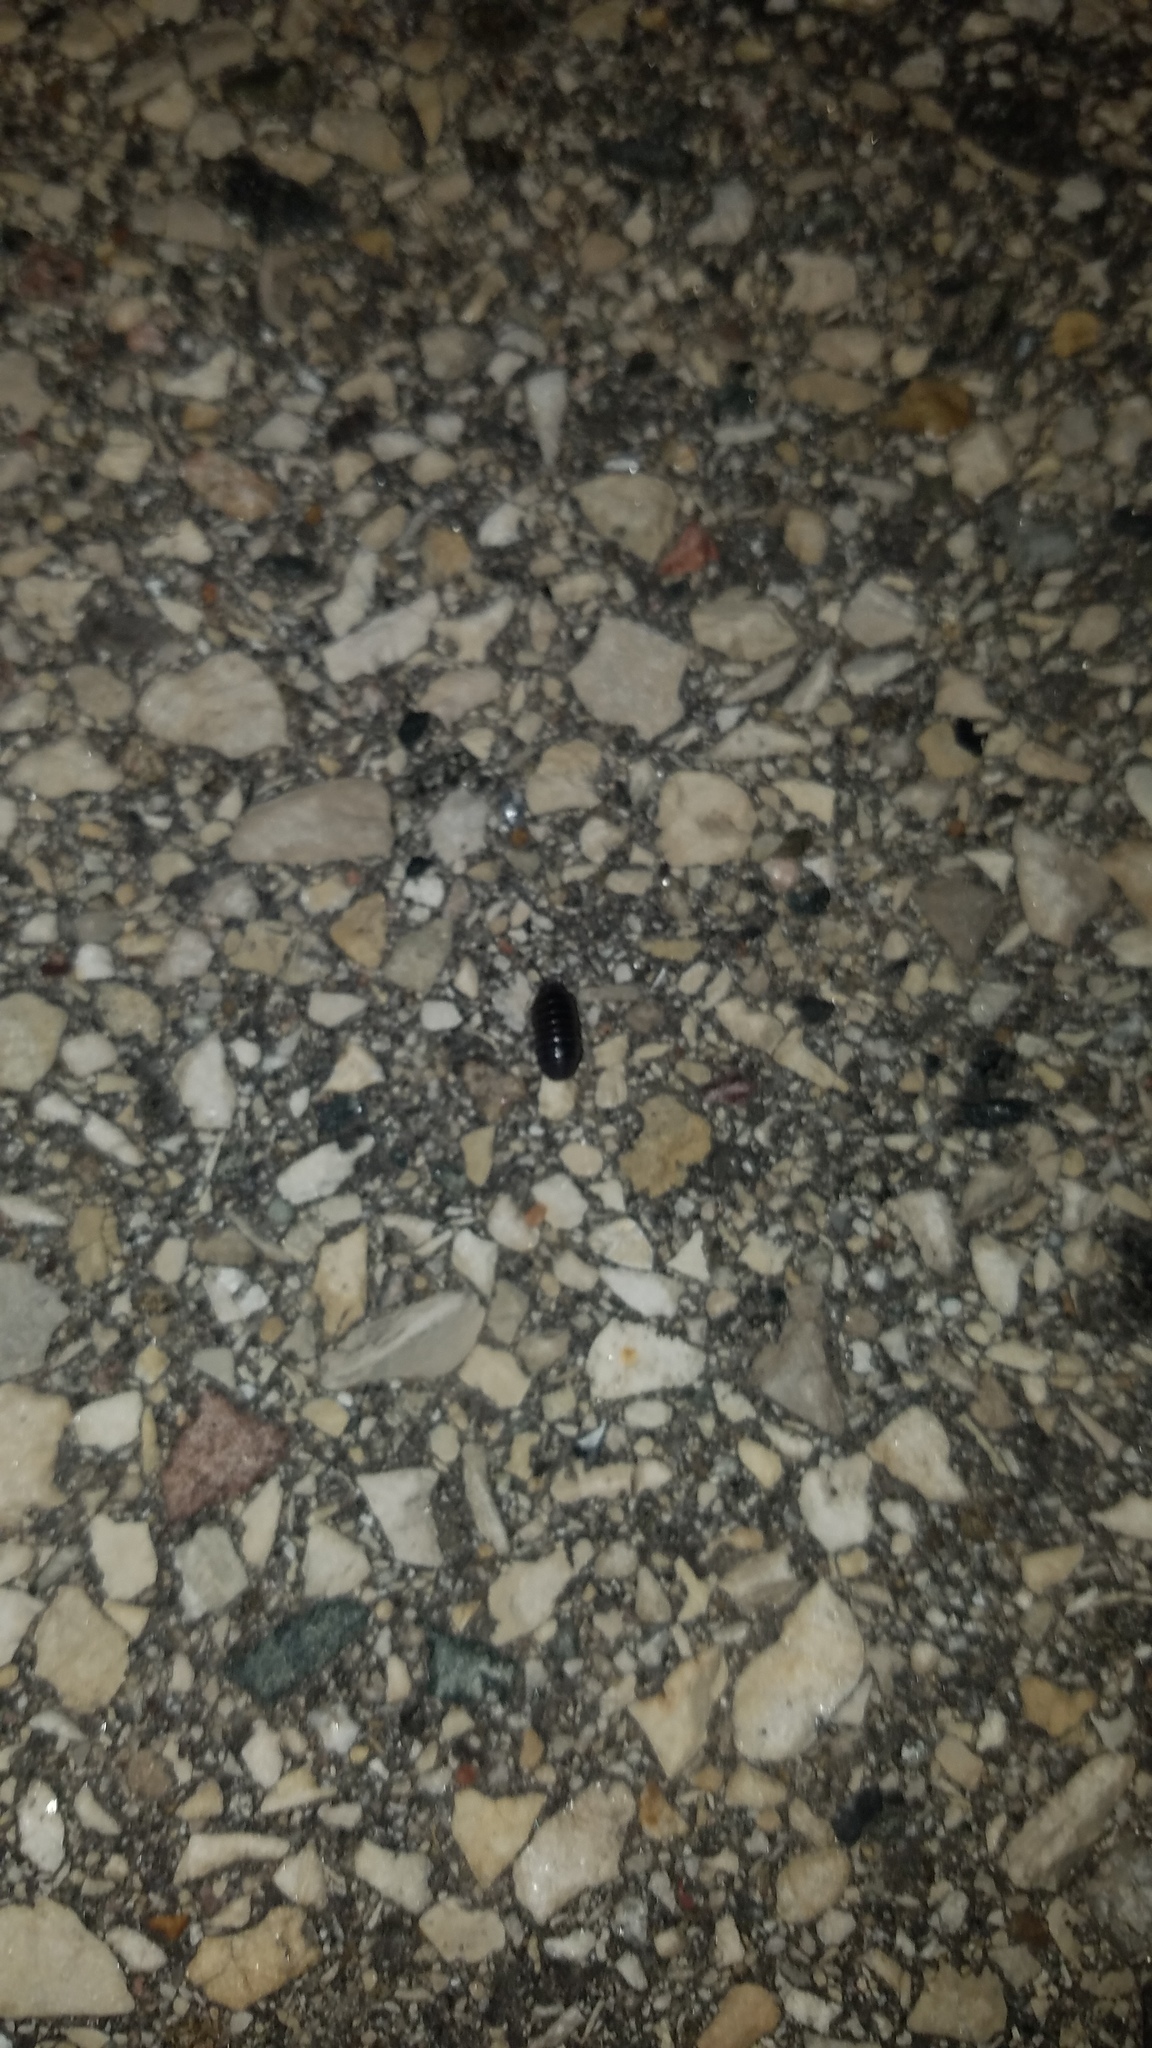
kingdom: Animalia
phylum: Arthropoda
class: Malacostraca
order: Isopoda
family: Armadillidiidae
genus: Armadillidium
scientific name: Armadillidium vulgare
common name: Common pill woodlouse
